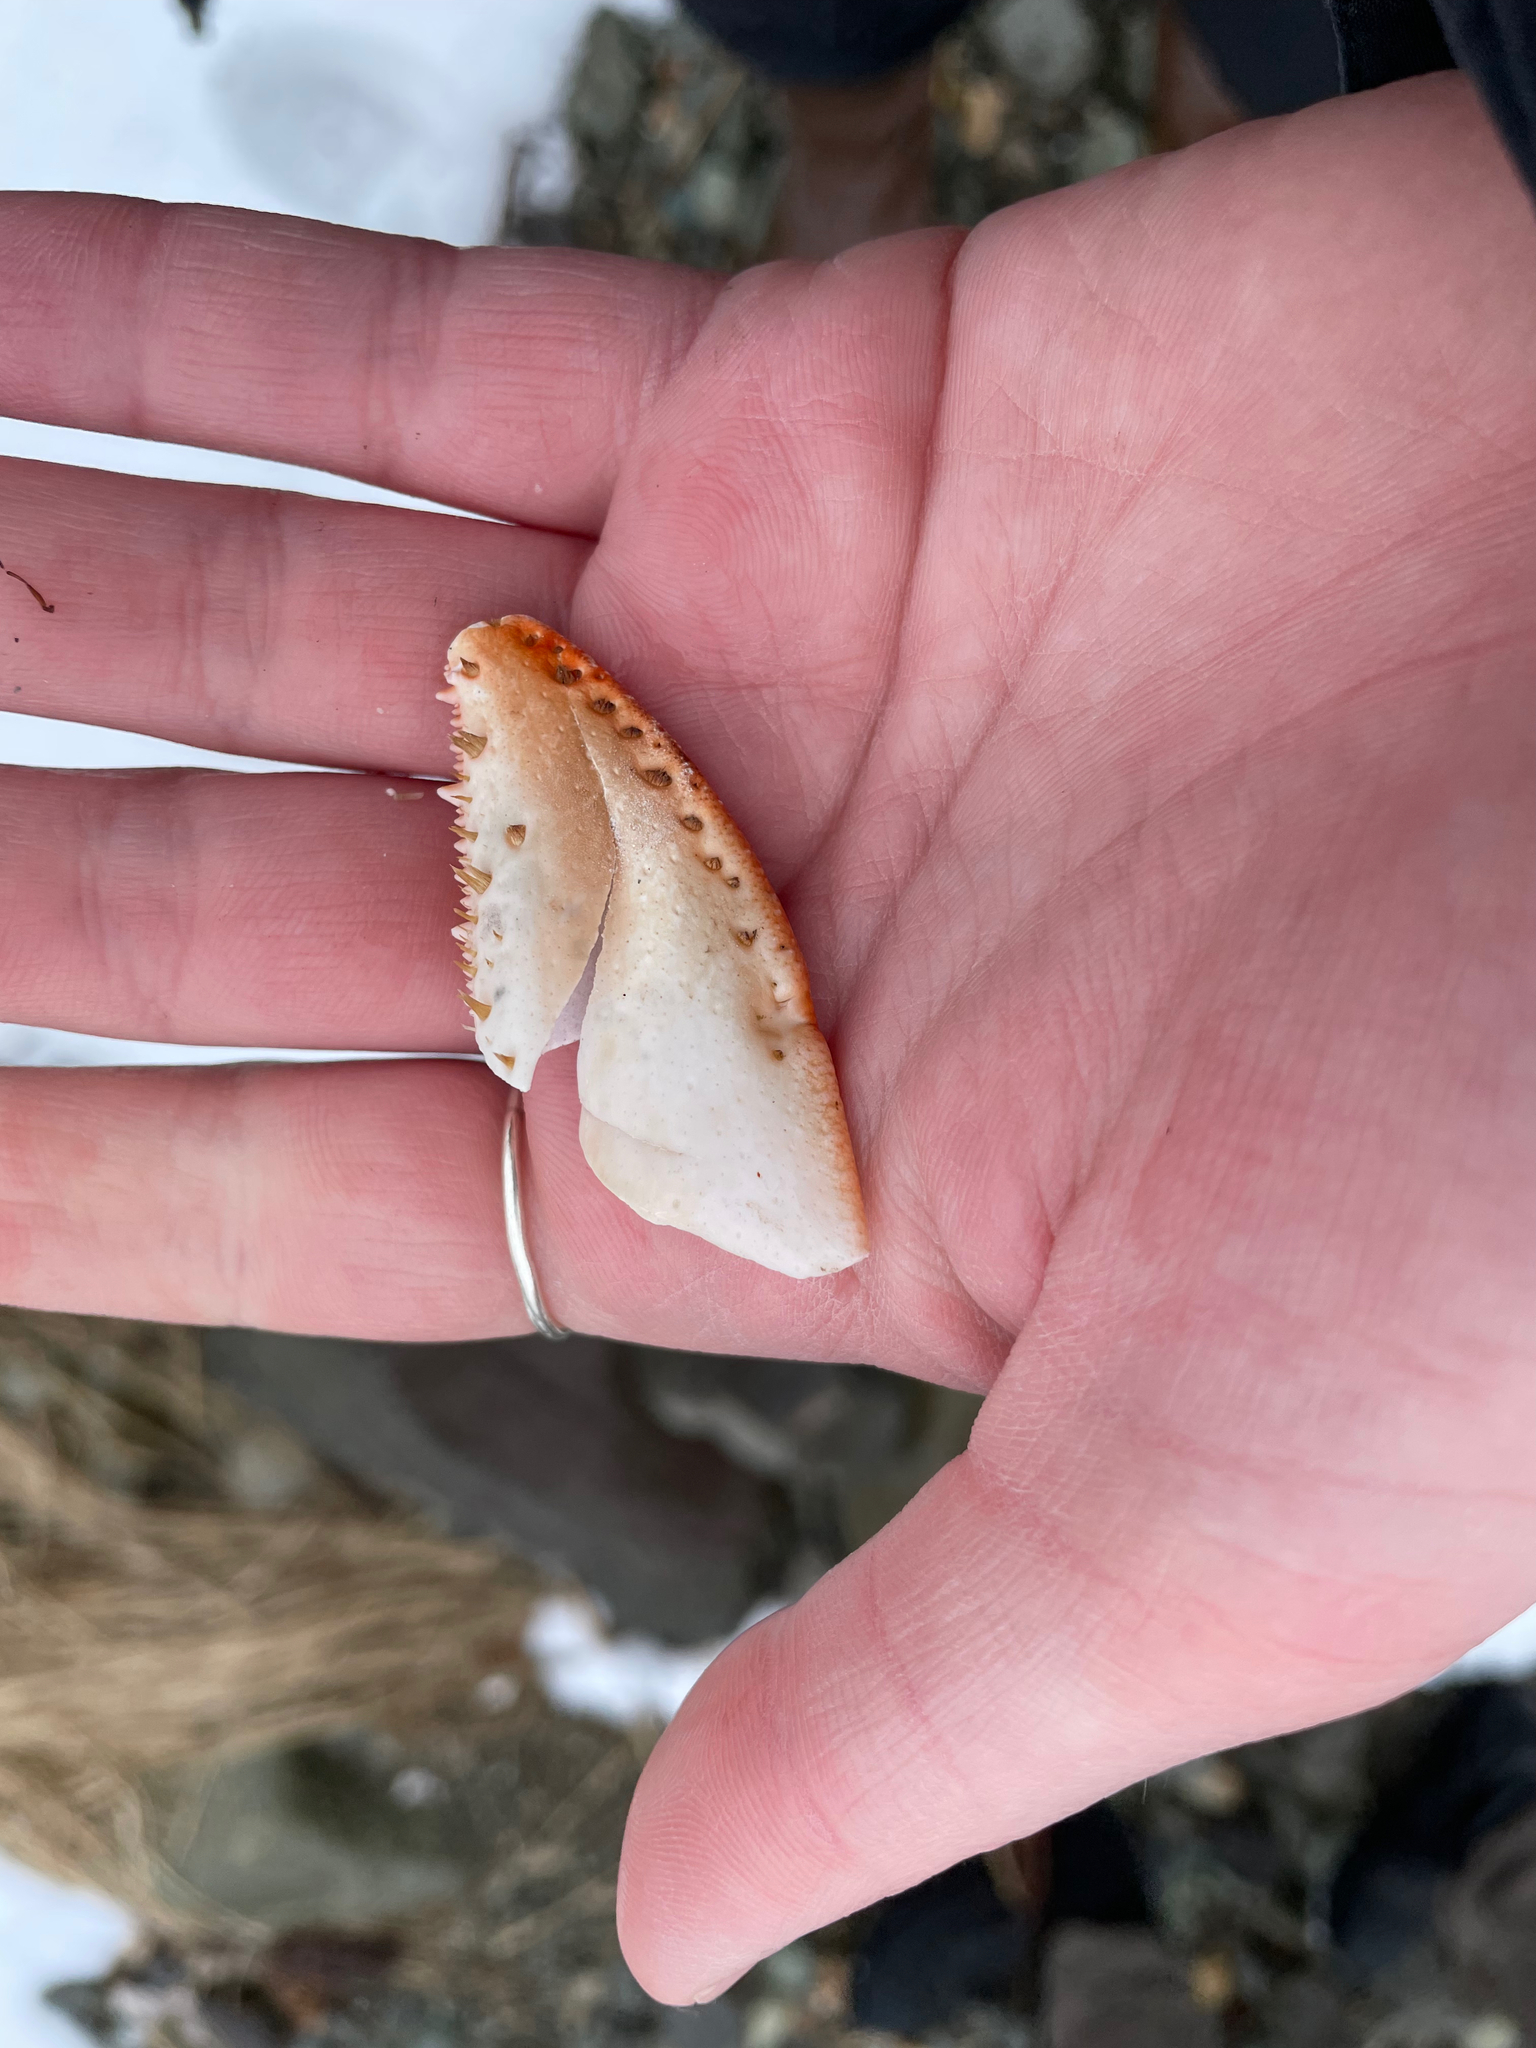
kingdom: Animalia
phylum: Arthropoda
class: Malacostraca
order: Decapoda
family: Nephropidae
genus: Homarus
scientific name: Homarus americanus
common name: American lobster
